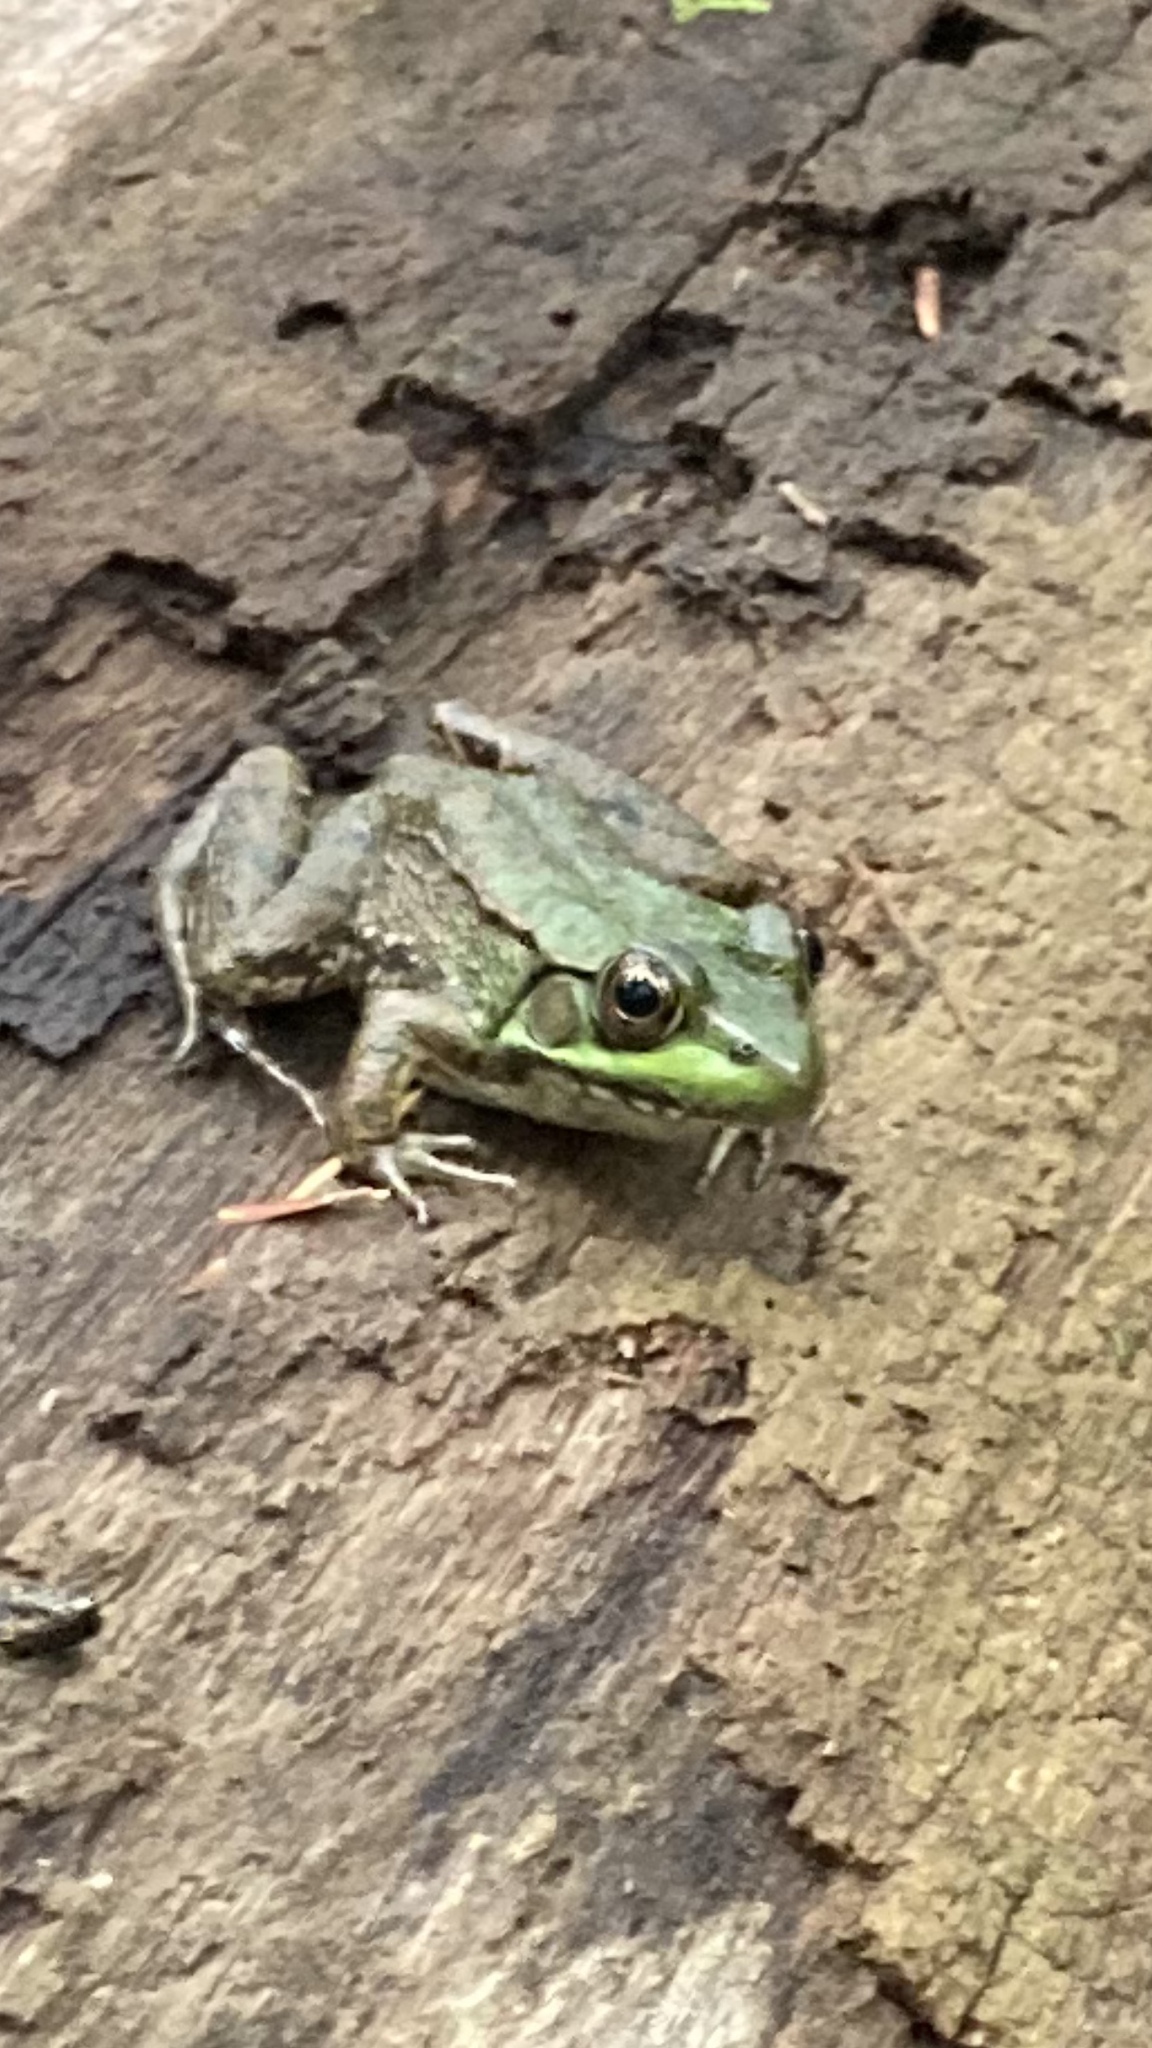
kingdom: Animalia
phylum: Chordata
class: Amphibia
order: Anura
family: Ranidae
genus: Lithobates
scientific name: Lithobates clamitans
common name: Green frog
